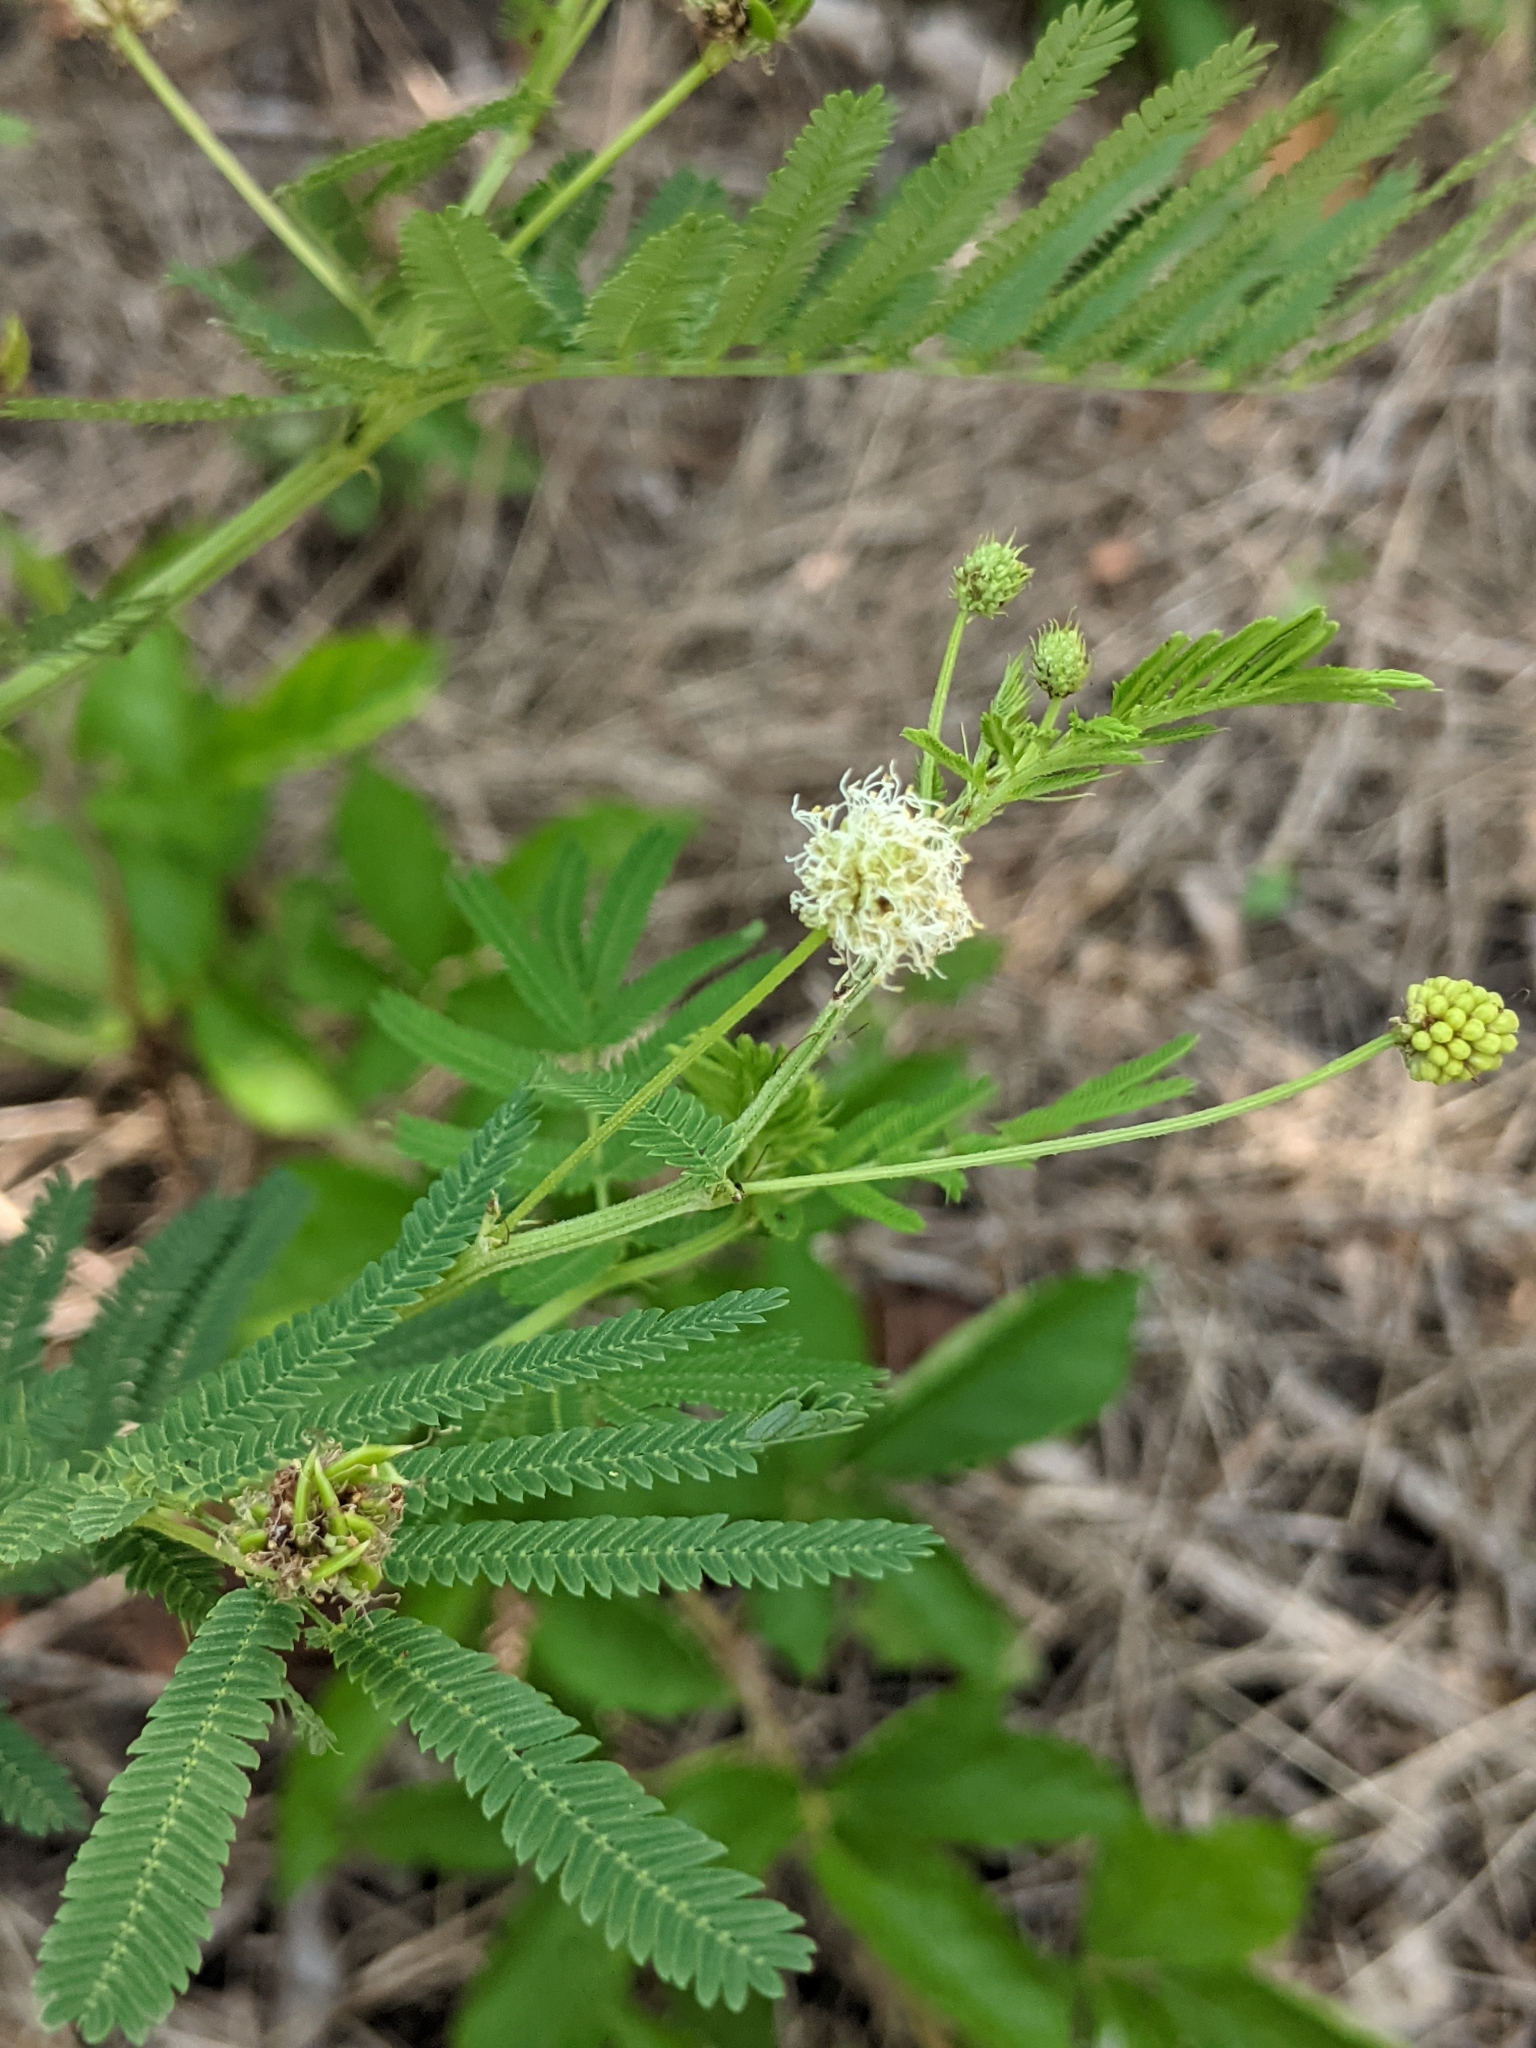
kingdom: Plantae
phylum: Tracheophyta
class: Magnoliopsida
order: Fabales
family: Fabaceae
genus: Desmanthus
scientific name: Desmanthus illinoensis
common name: Illinois bundle-flower
